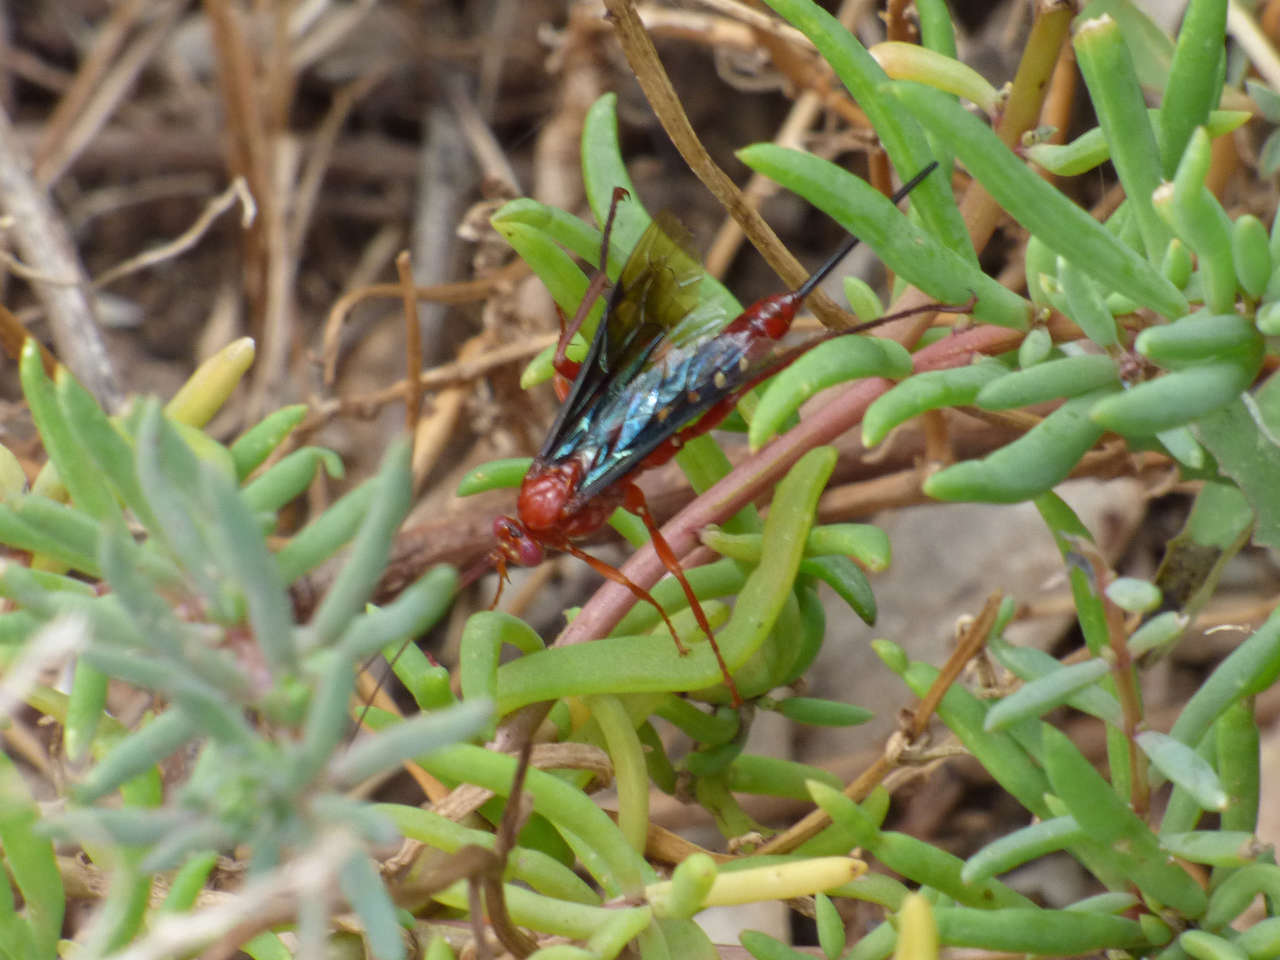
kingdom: Animalia
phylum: Arthropoda
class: Insecta
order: Hymenoptera
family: Ichneumonidae
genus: Lissopimpla
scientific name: Lissopimpla excelsa
